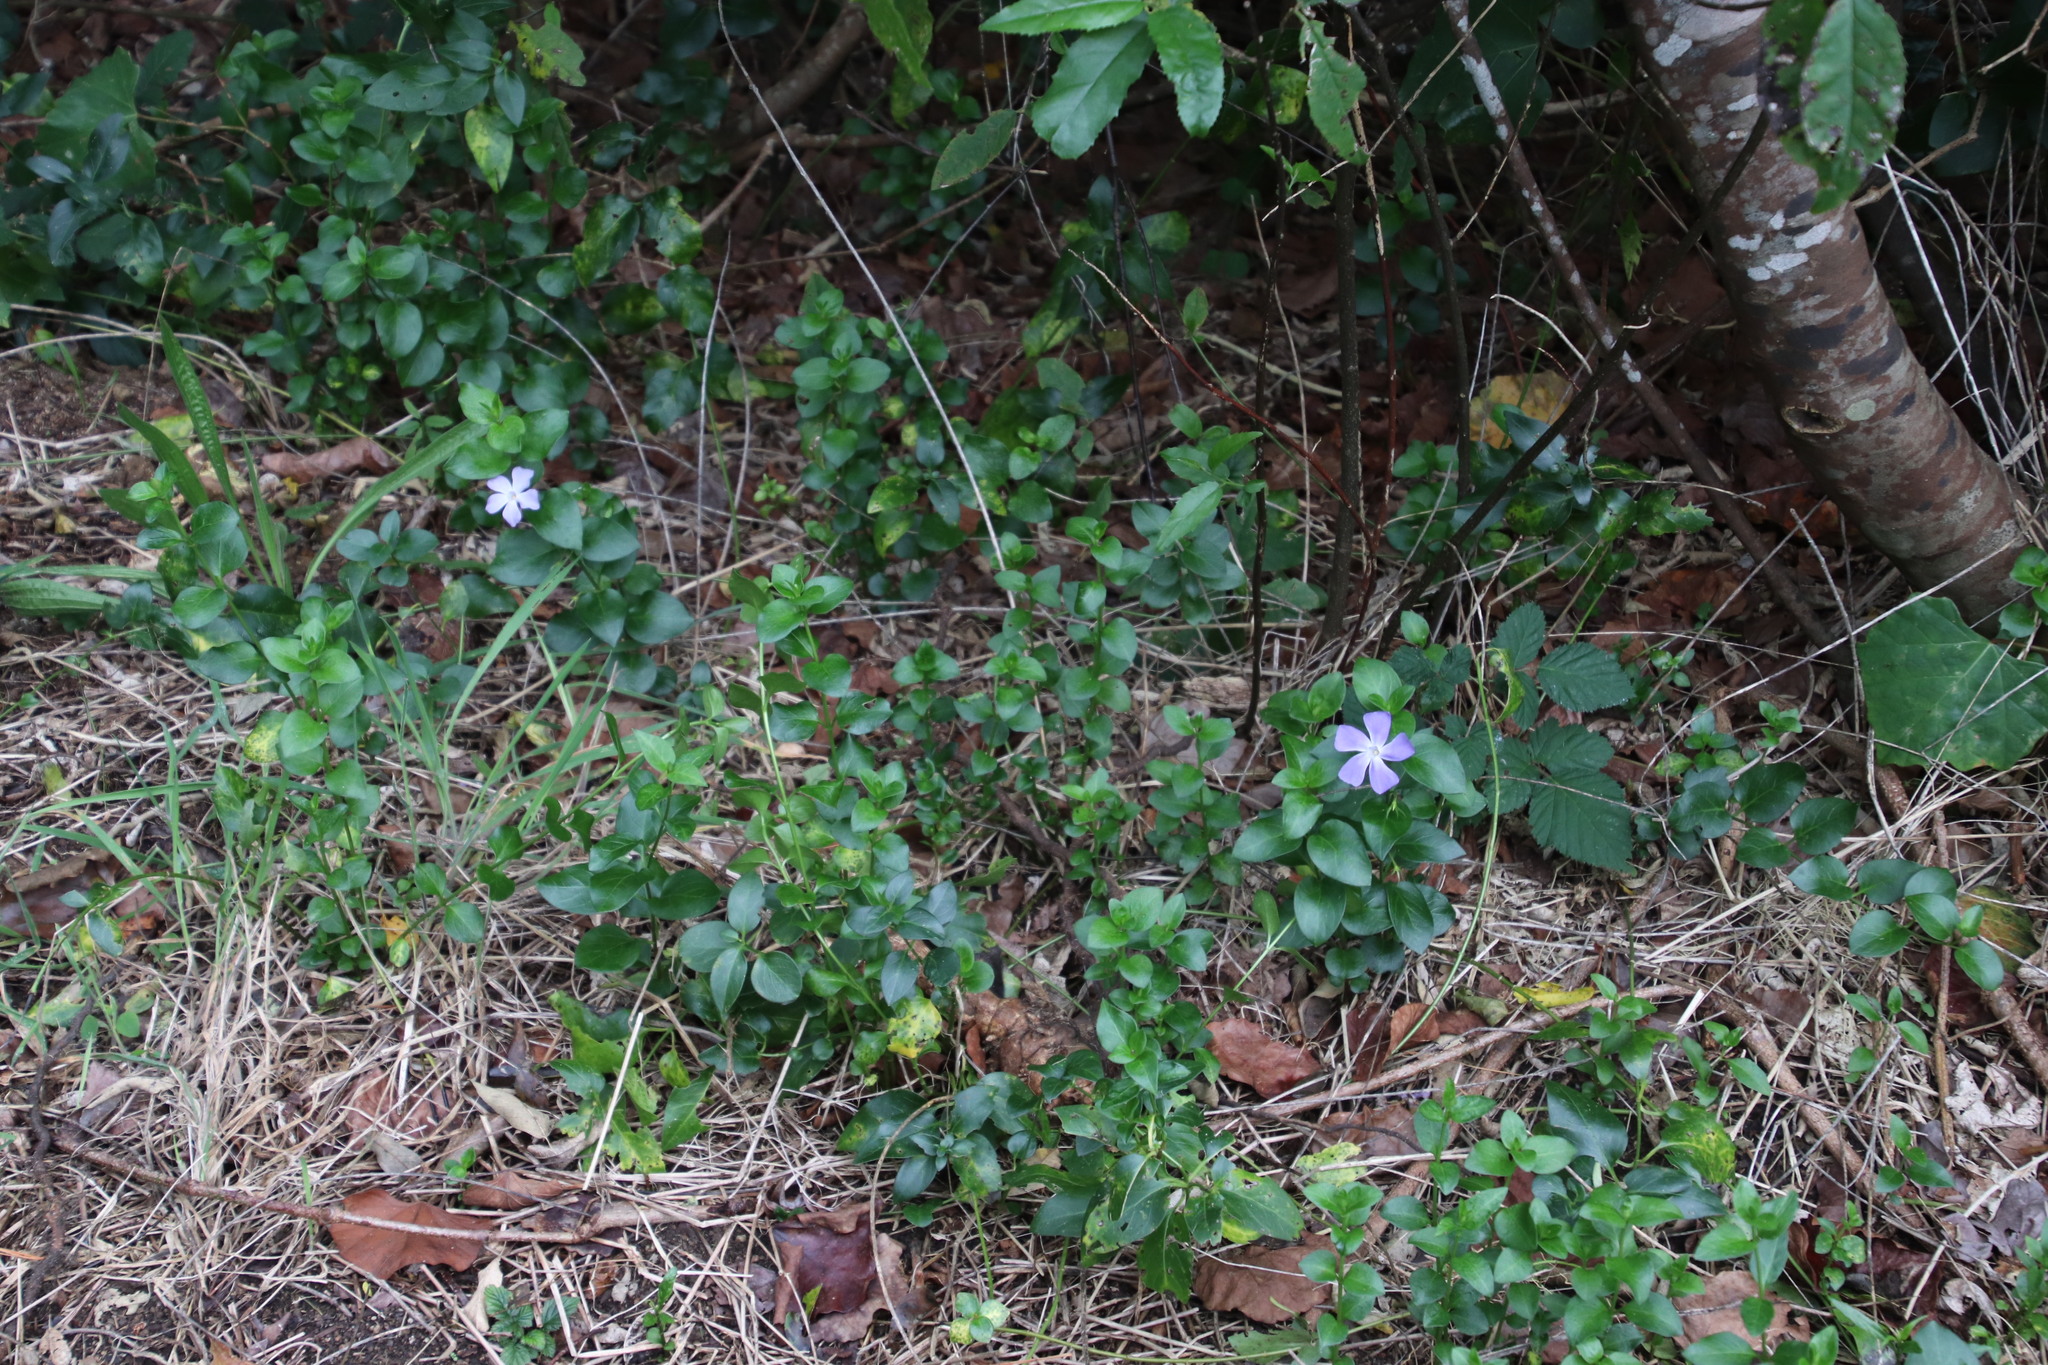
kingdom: Plantae
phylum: Tracheophyta
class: Magnoliopsida
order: Gentianales
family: Apocynaceae
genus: Vinca
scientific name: Vinca major
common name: Greater periwinkle
